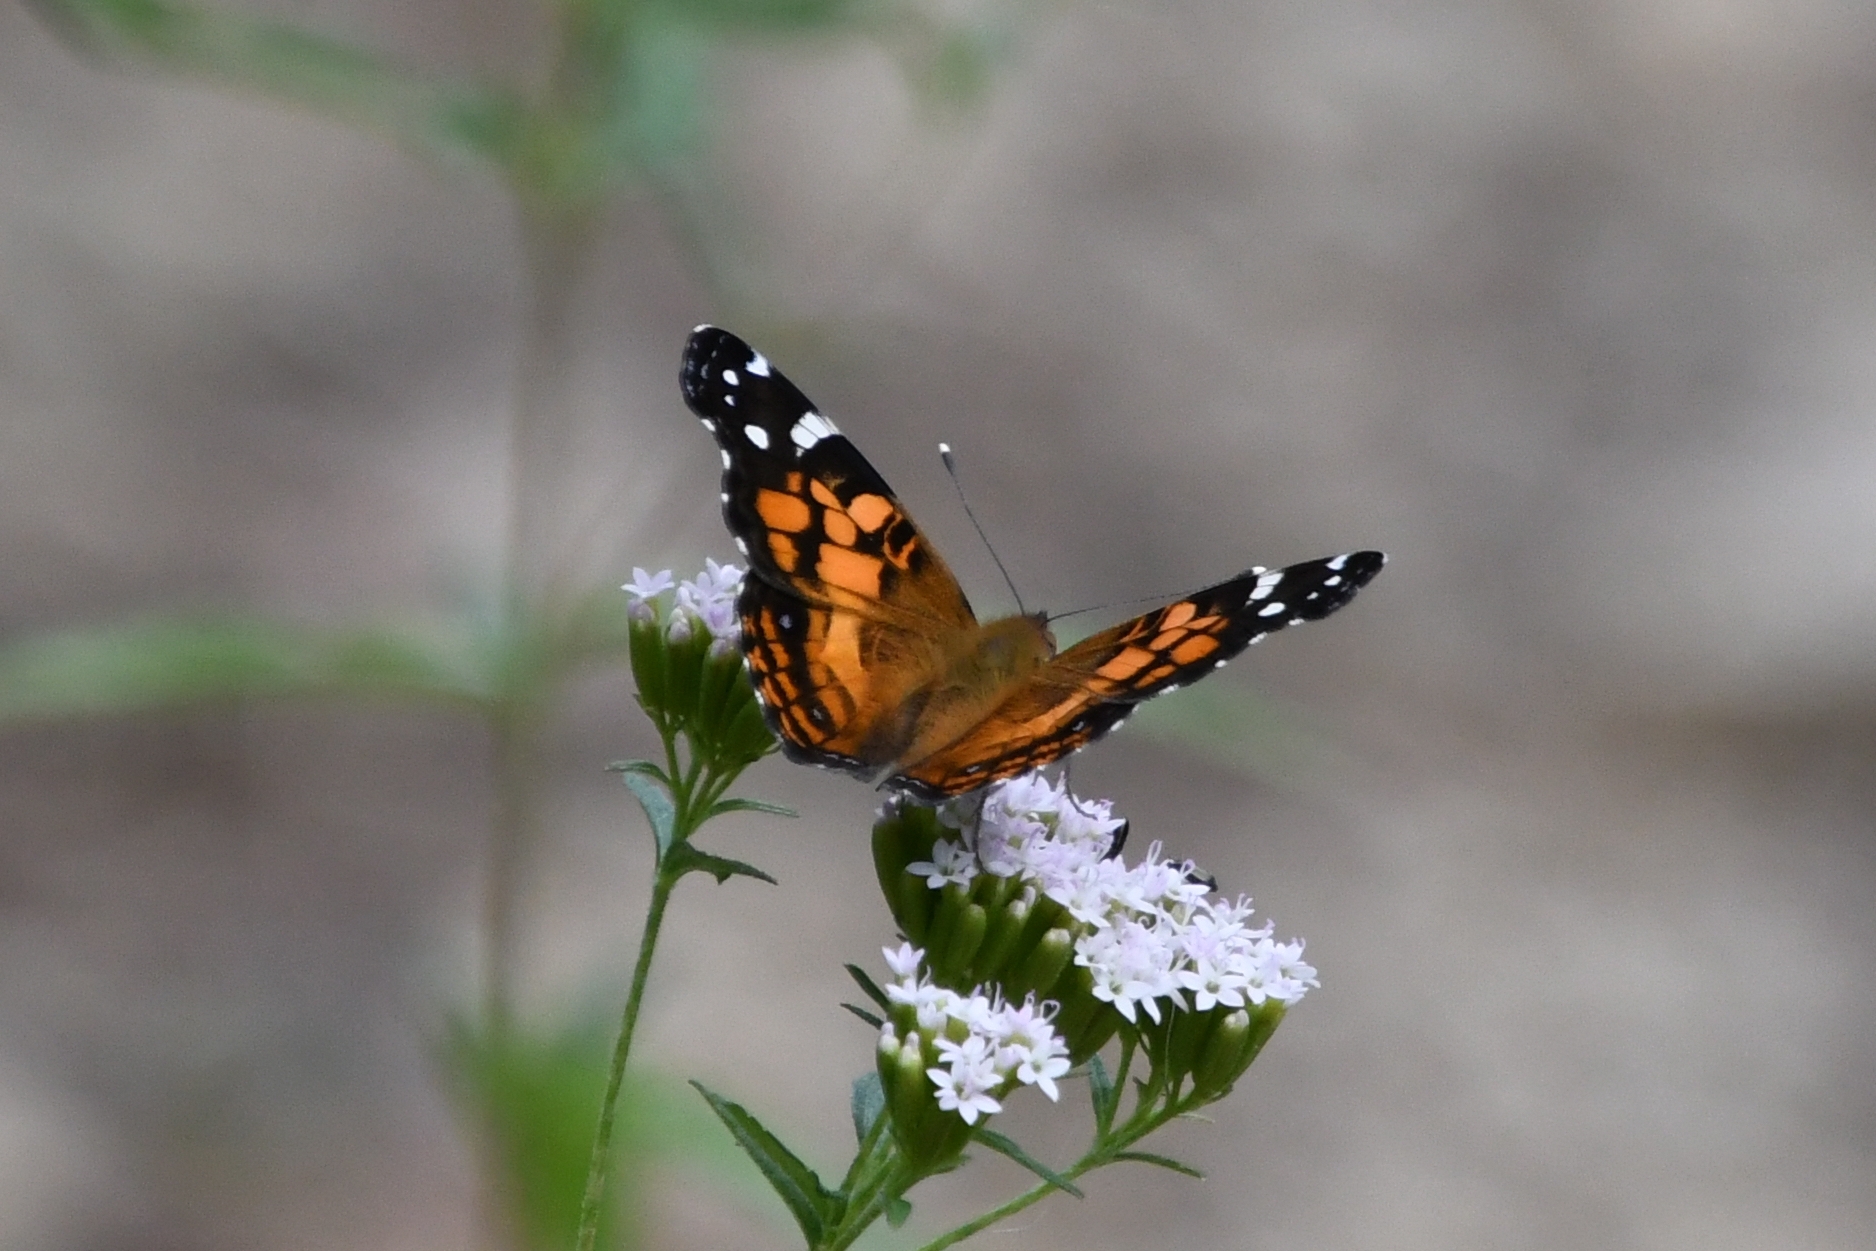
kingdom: Animalia
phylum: Arthropoda
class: Insecta
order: Lepidoptera
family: Nymphalidae
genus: Vanessa
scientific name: Vanessa virginiensis
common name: American lady
